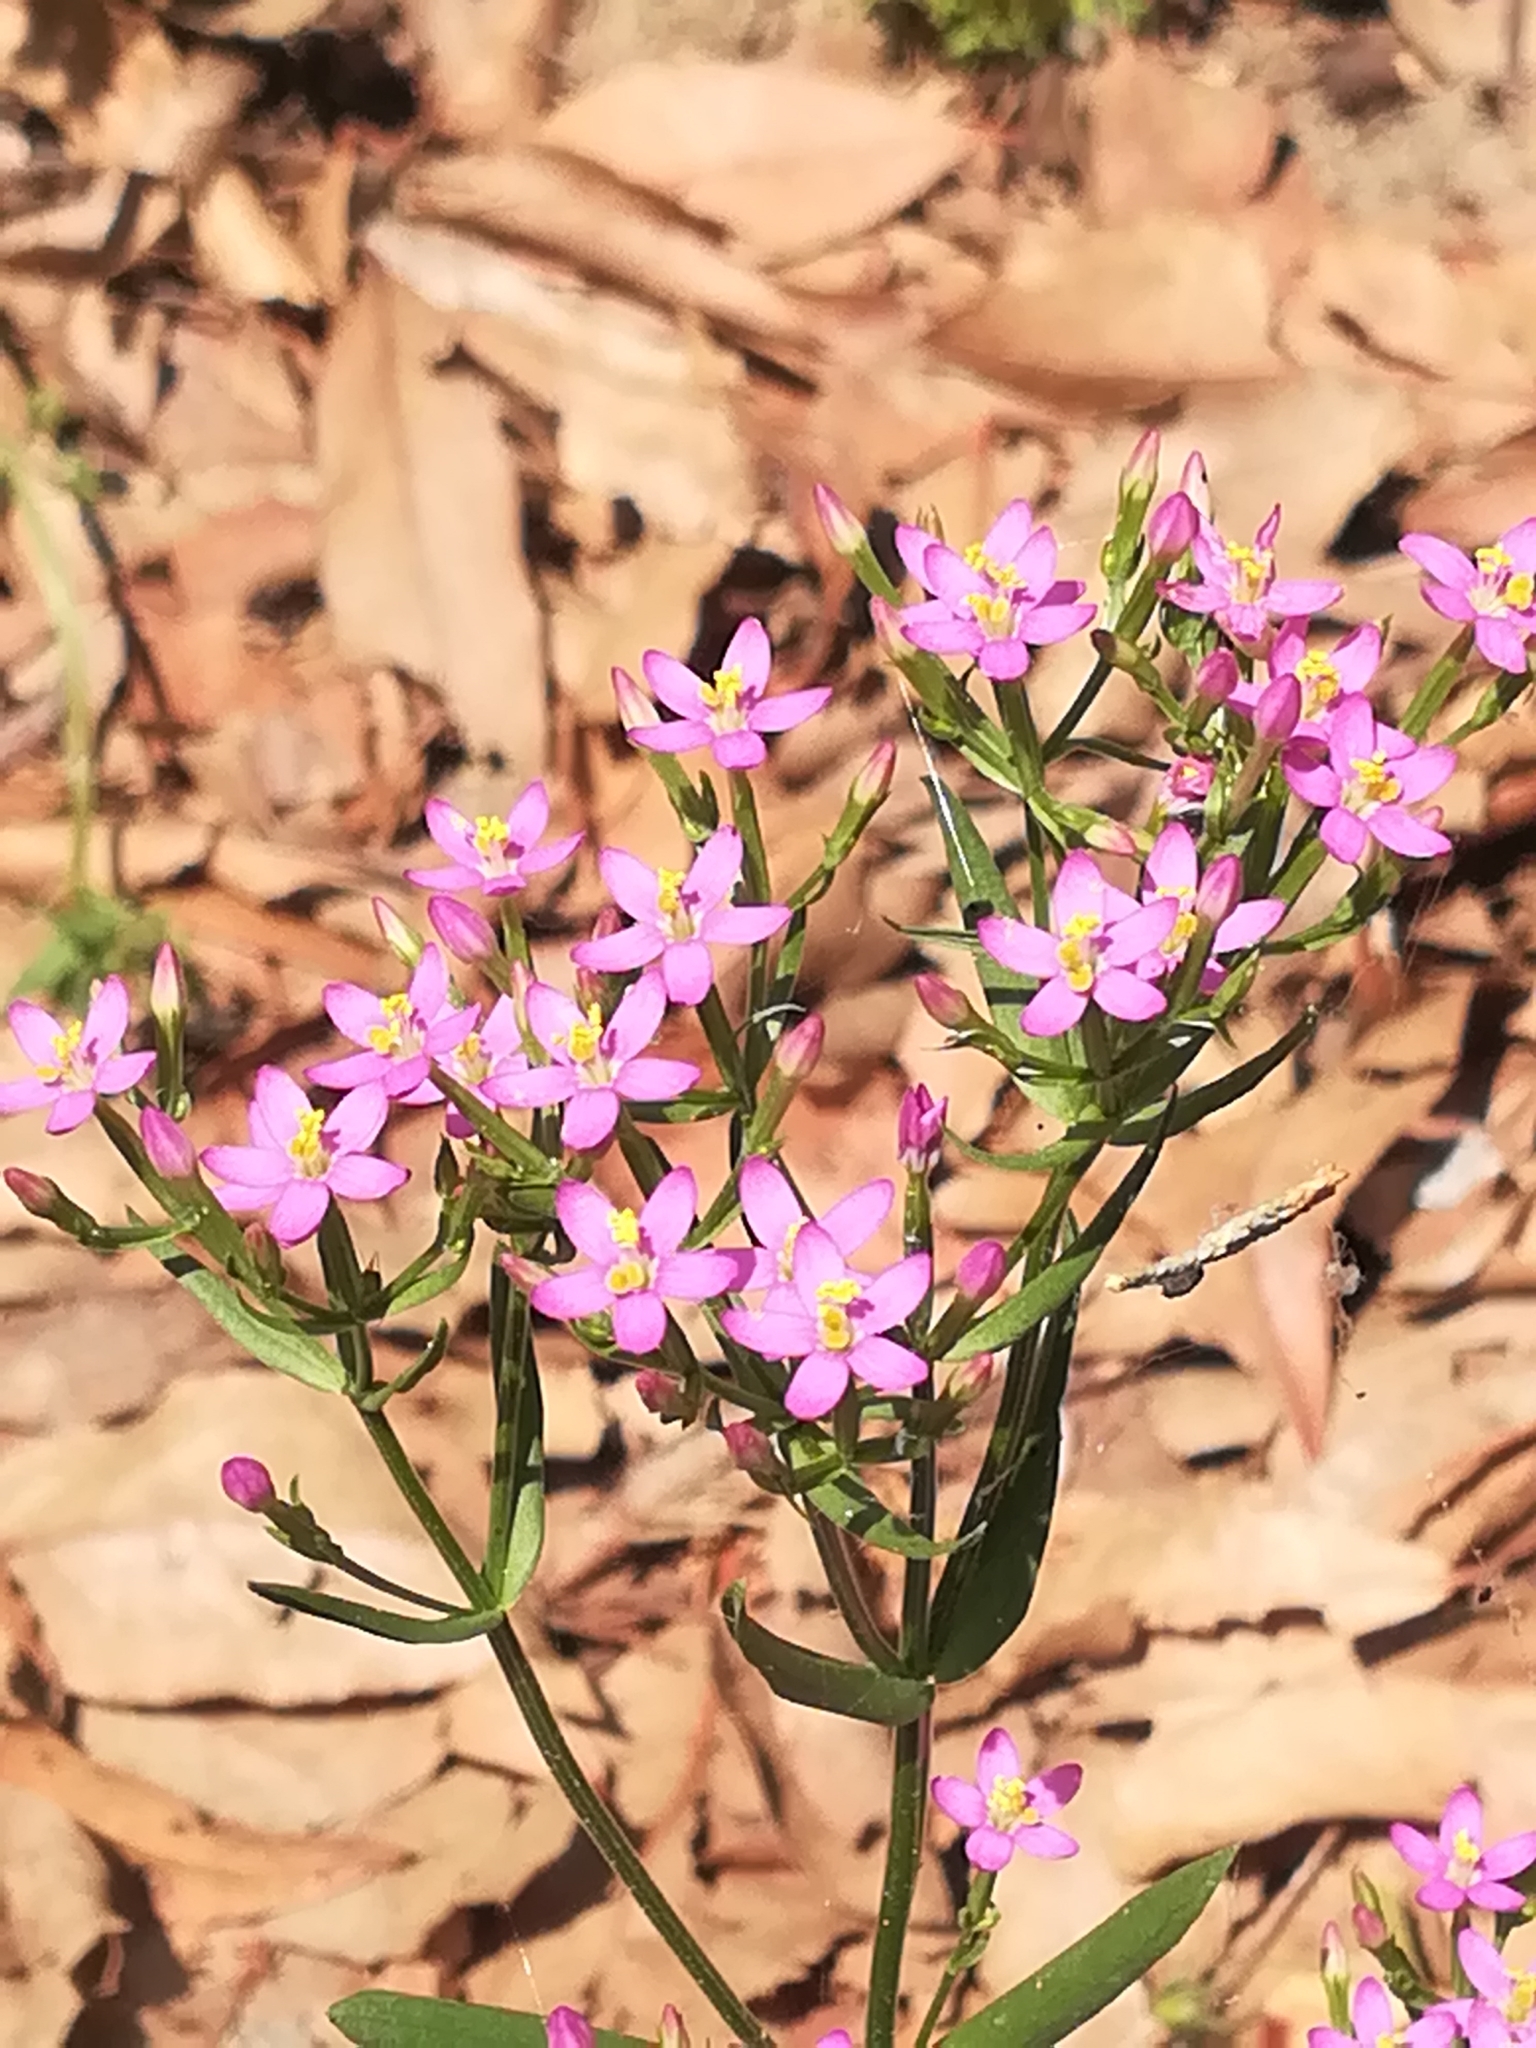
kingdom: Plantae
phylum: Tracheophyta
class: Magnoliopsida
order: Gentianales
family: Gentianaceae
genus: Centaurium
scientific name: Centaurium erythraea
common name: Common centaury
